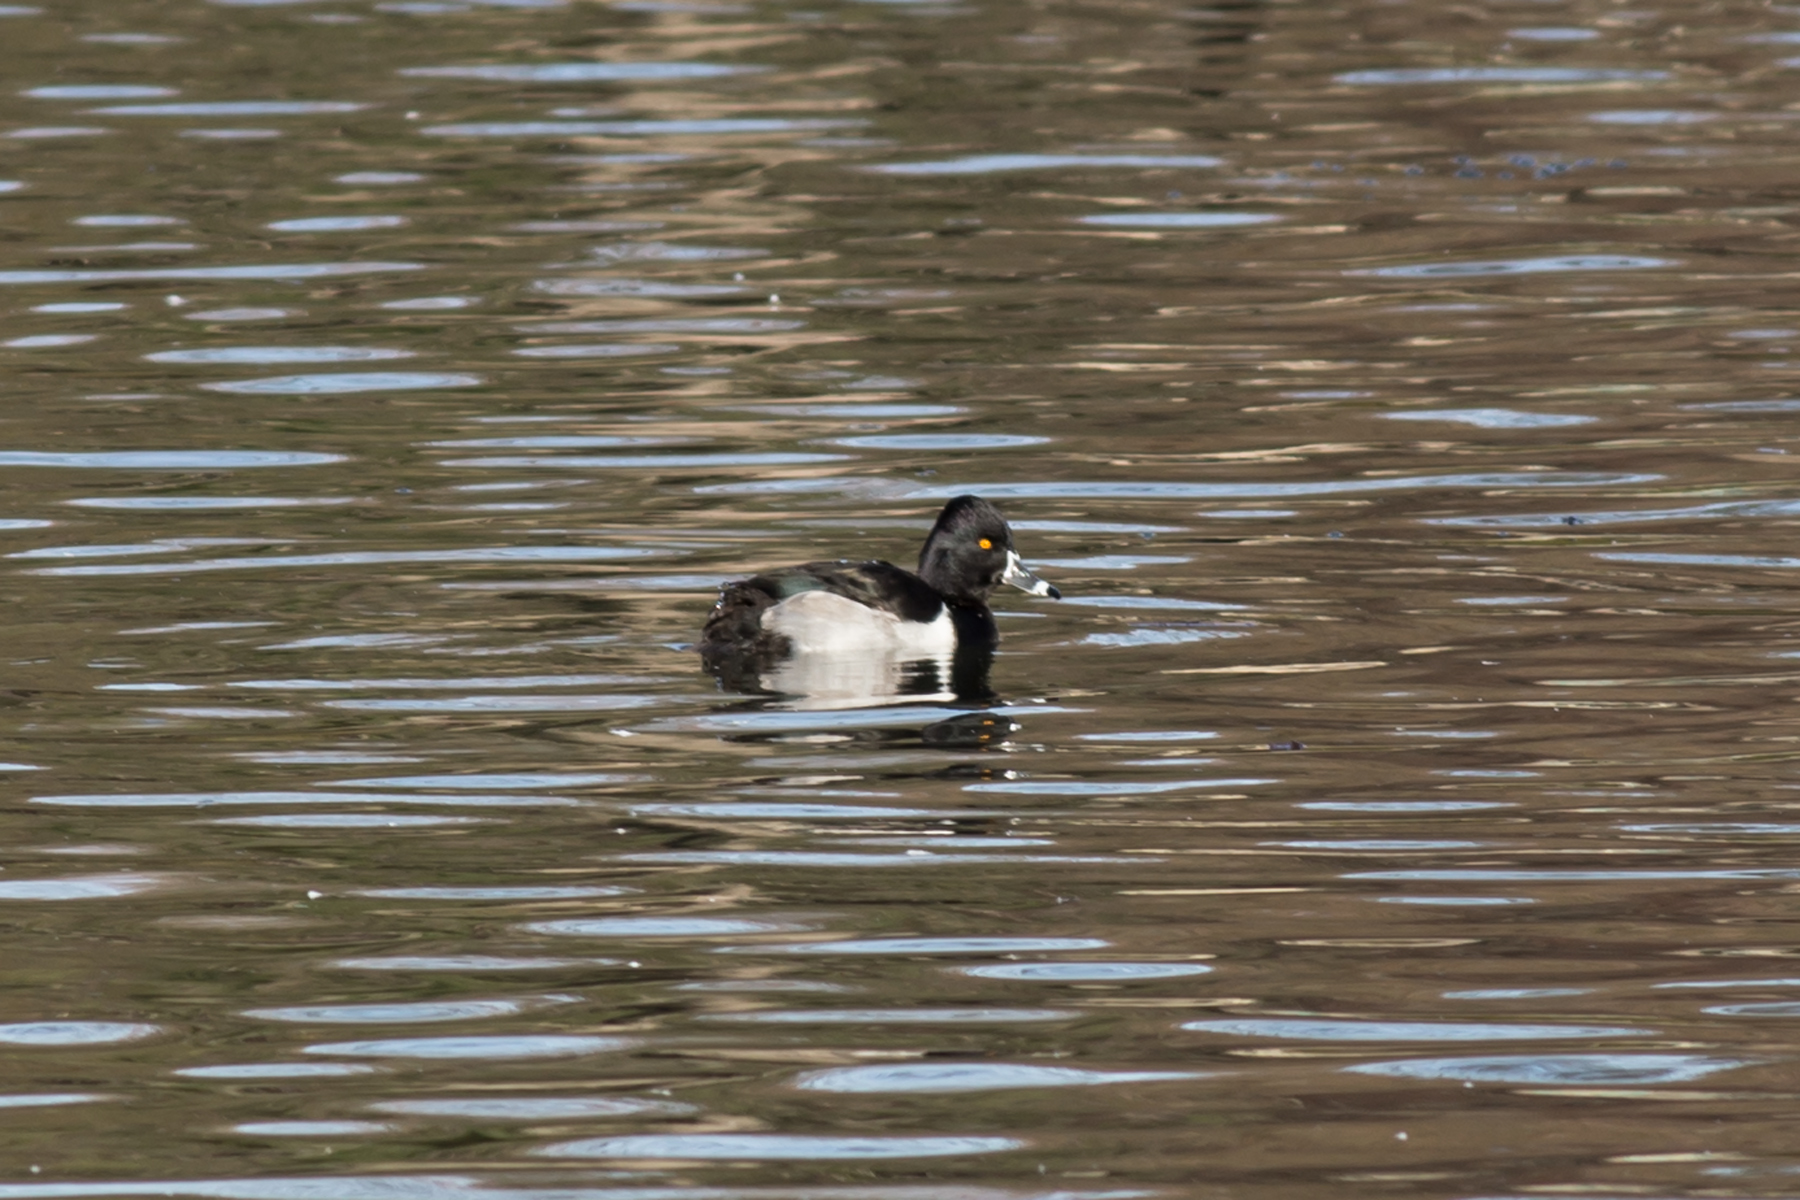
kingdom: Animalia
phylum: Chordata
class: Aves
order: Anseriformes
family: Anatidae
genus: Aythya
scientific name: Aythya collaris
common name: Ring-necked duck
